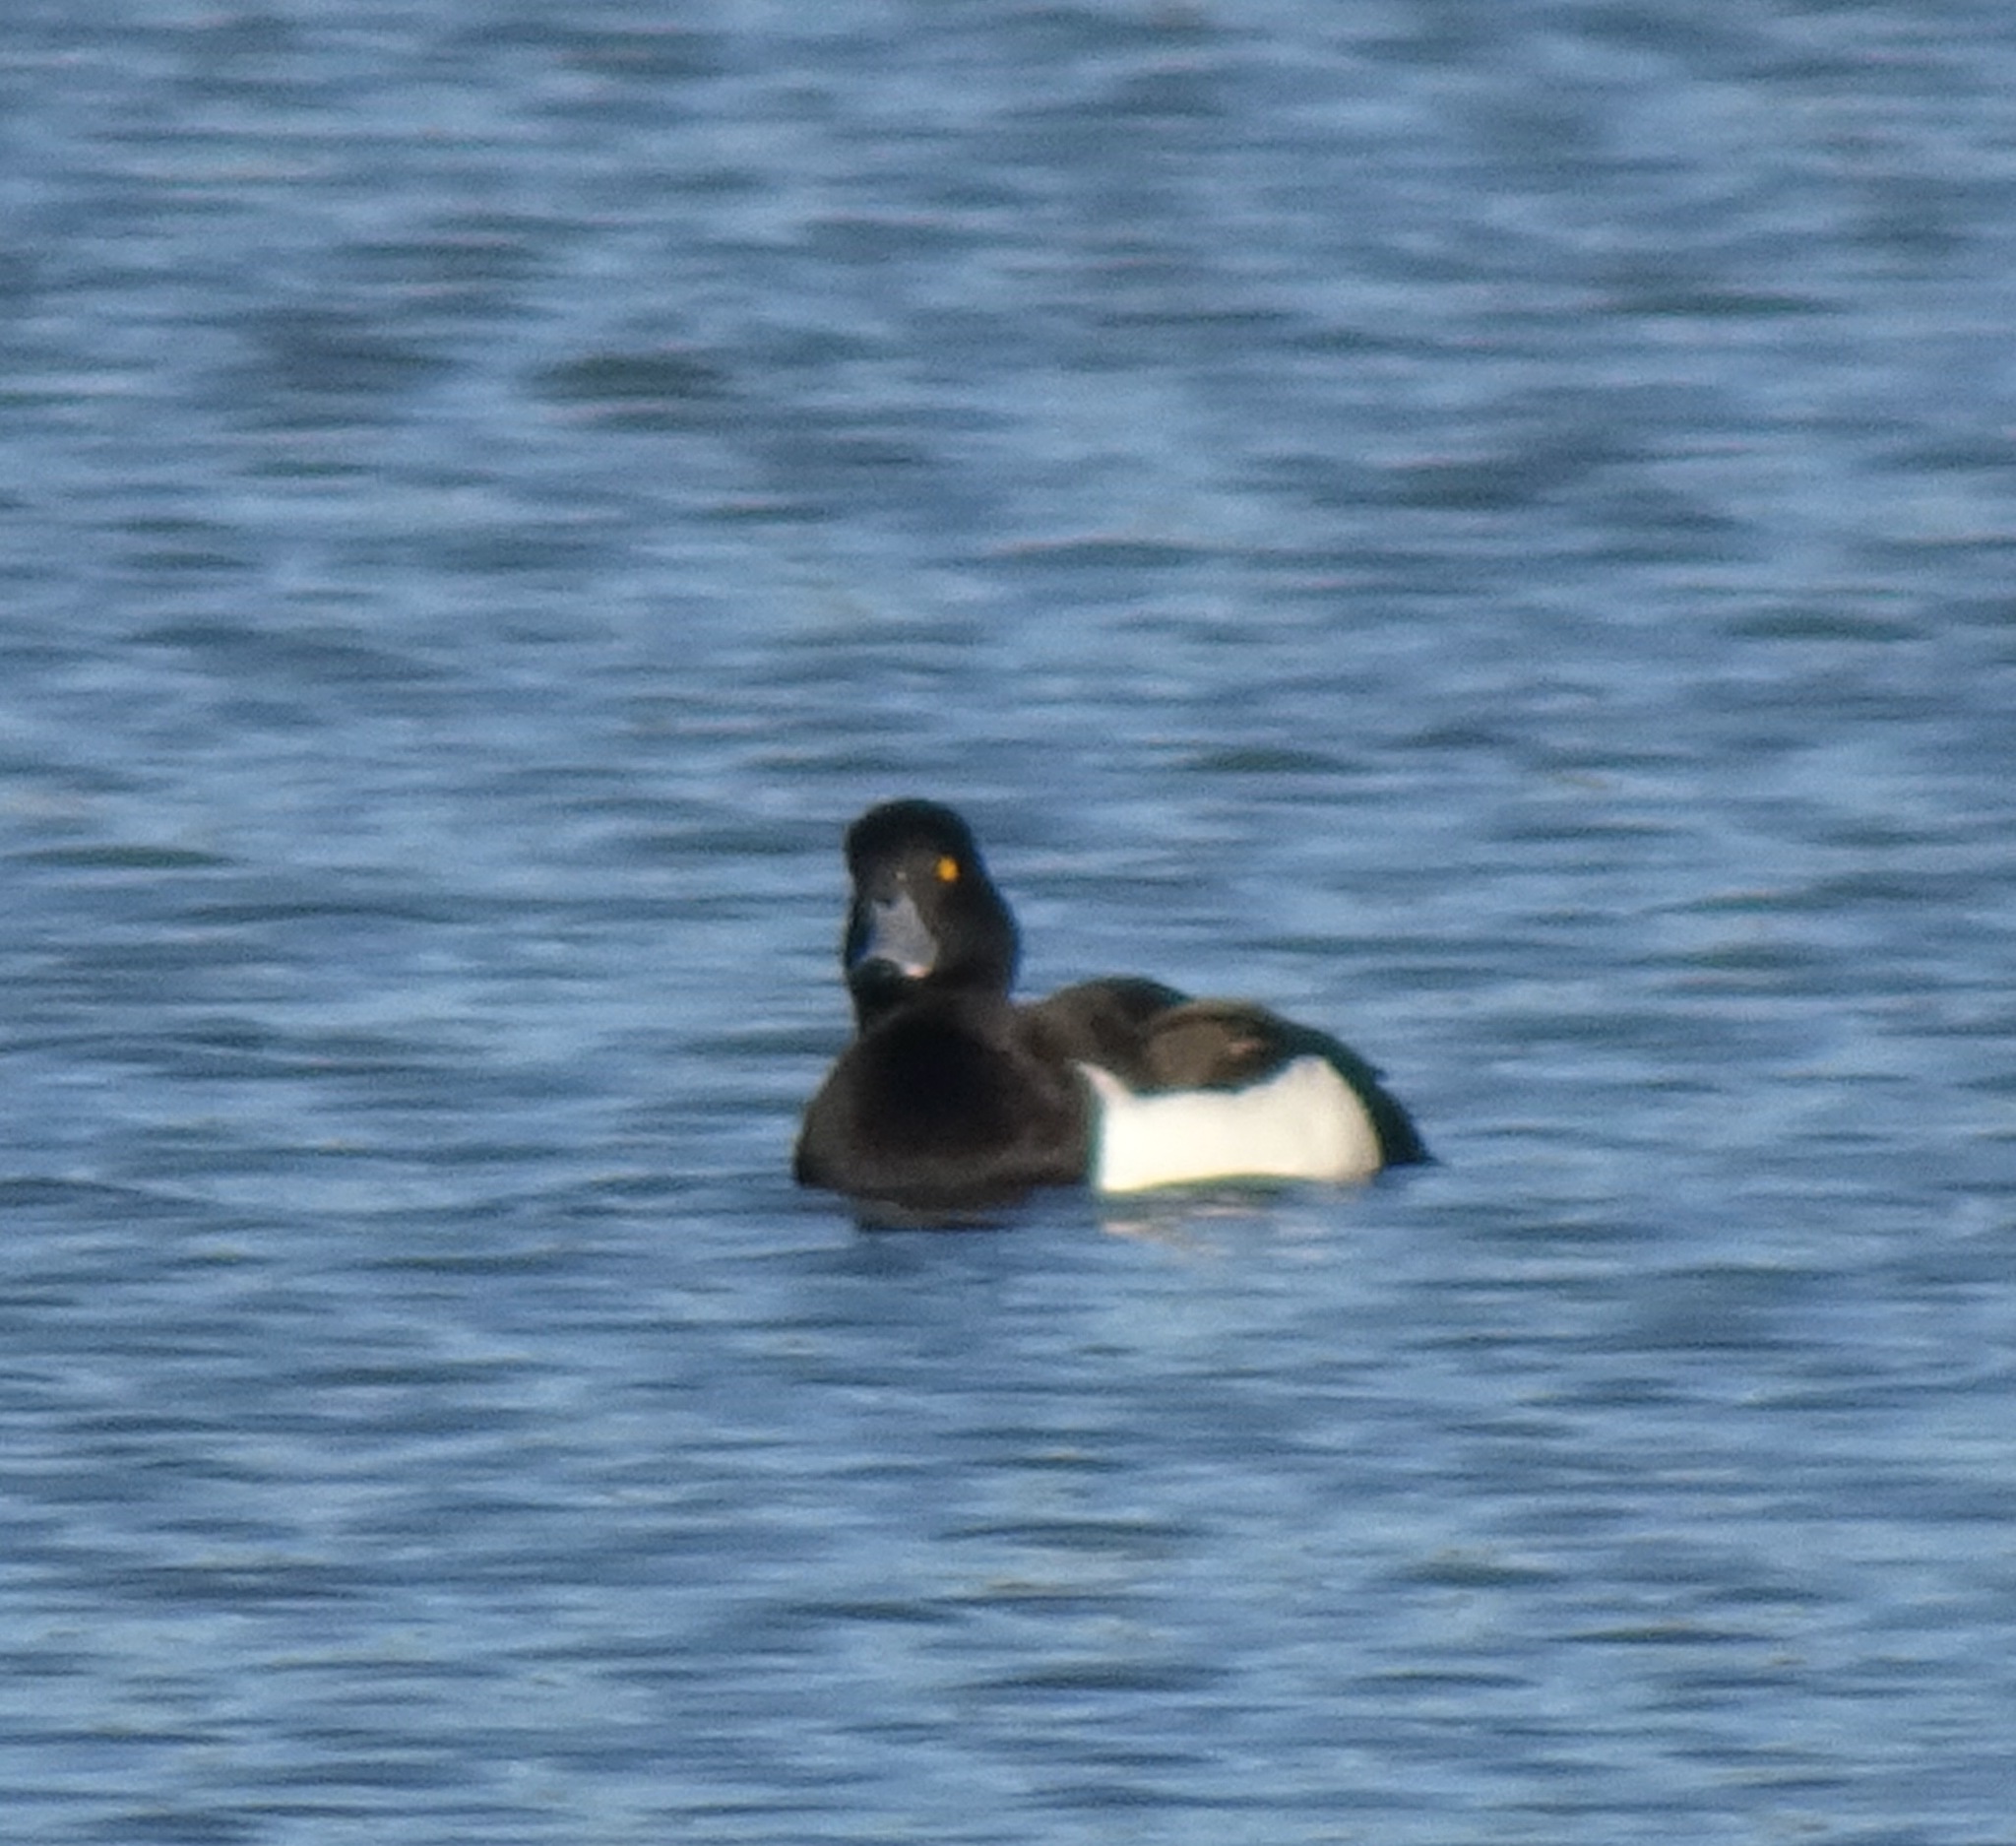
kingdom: Animalia
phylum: Chordata
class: Aves
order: Anseriformes
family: Anatidae
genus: Aythya
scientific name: Aythya fuligula
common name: Tufted duck
